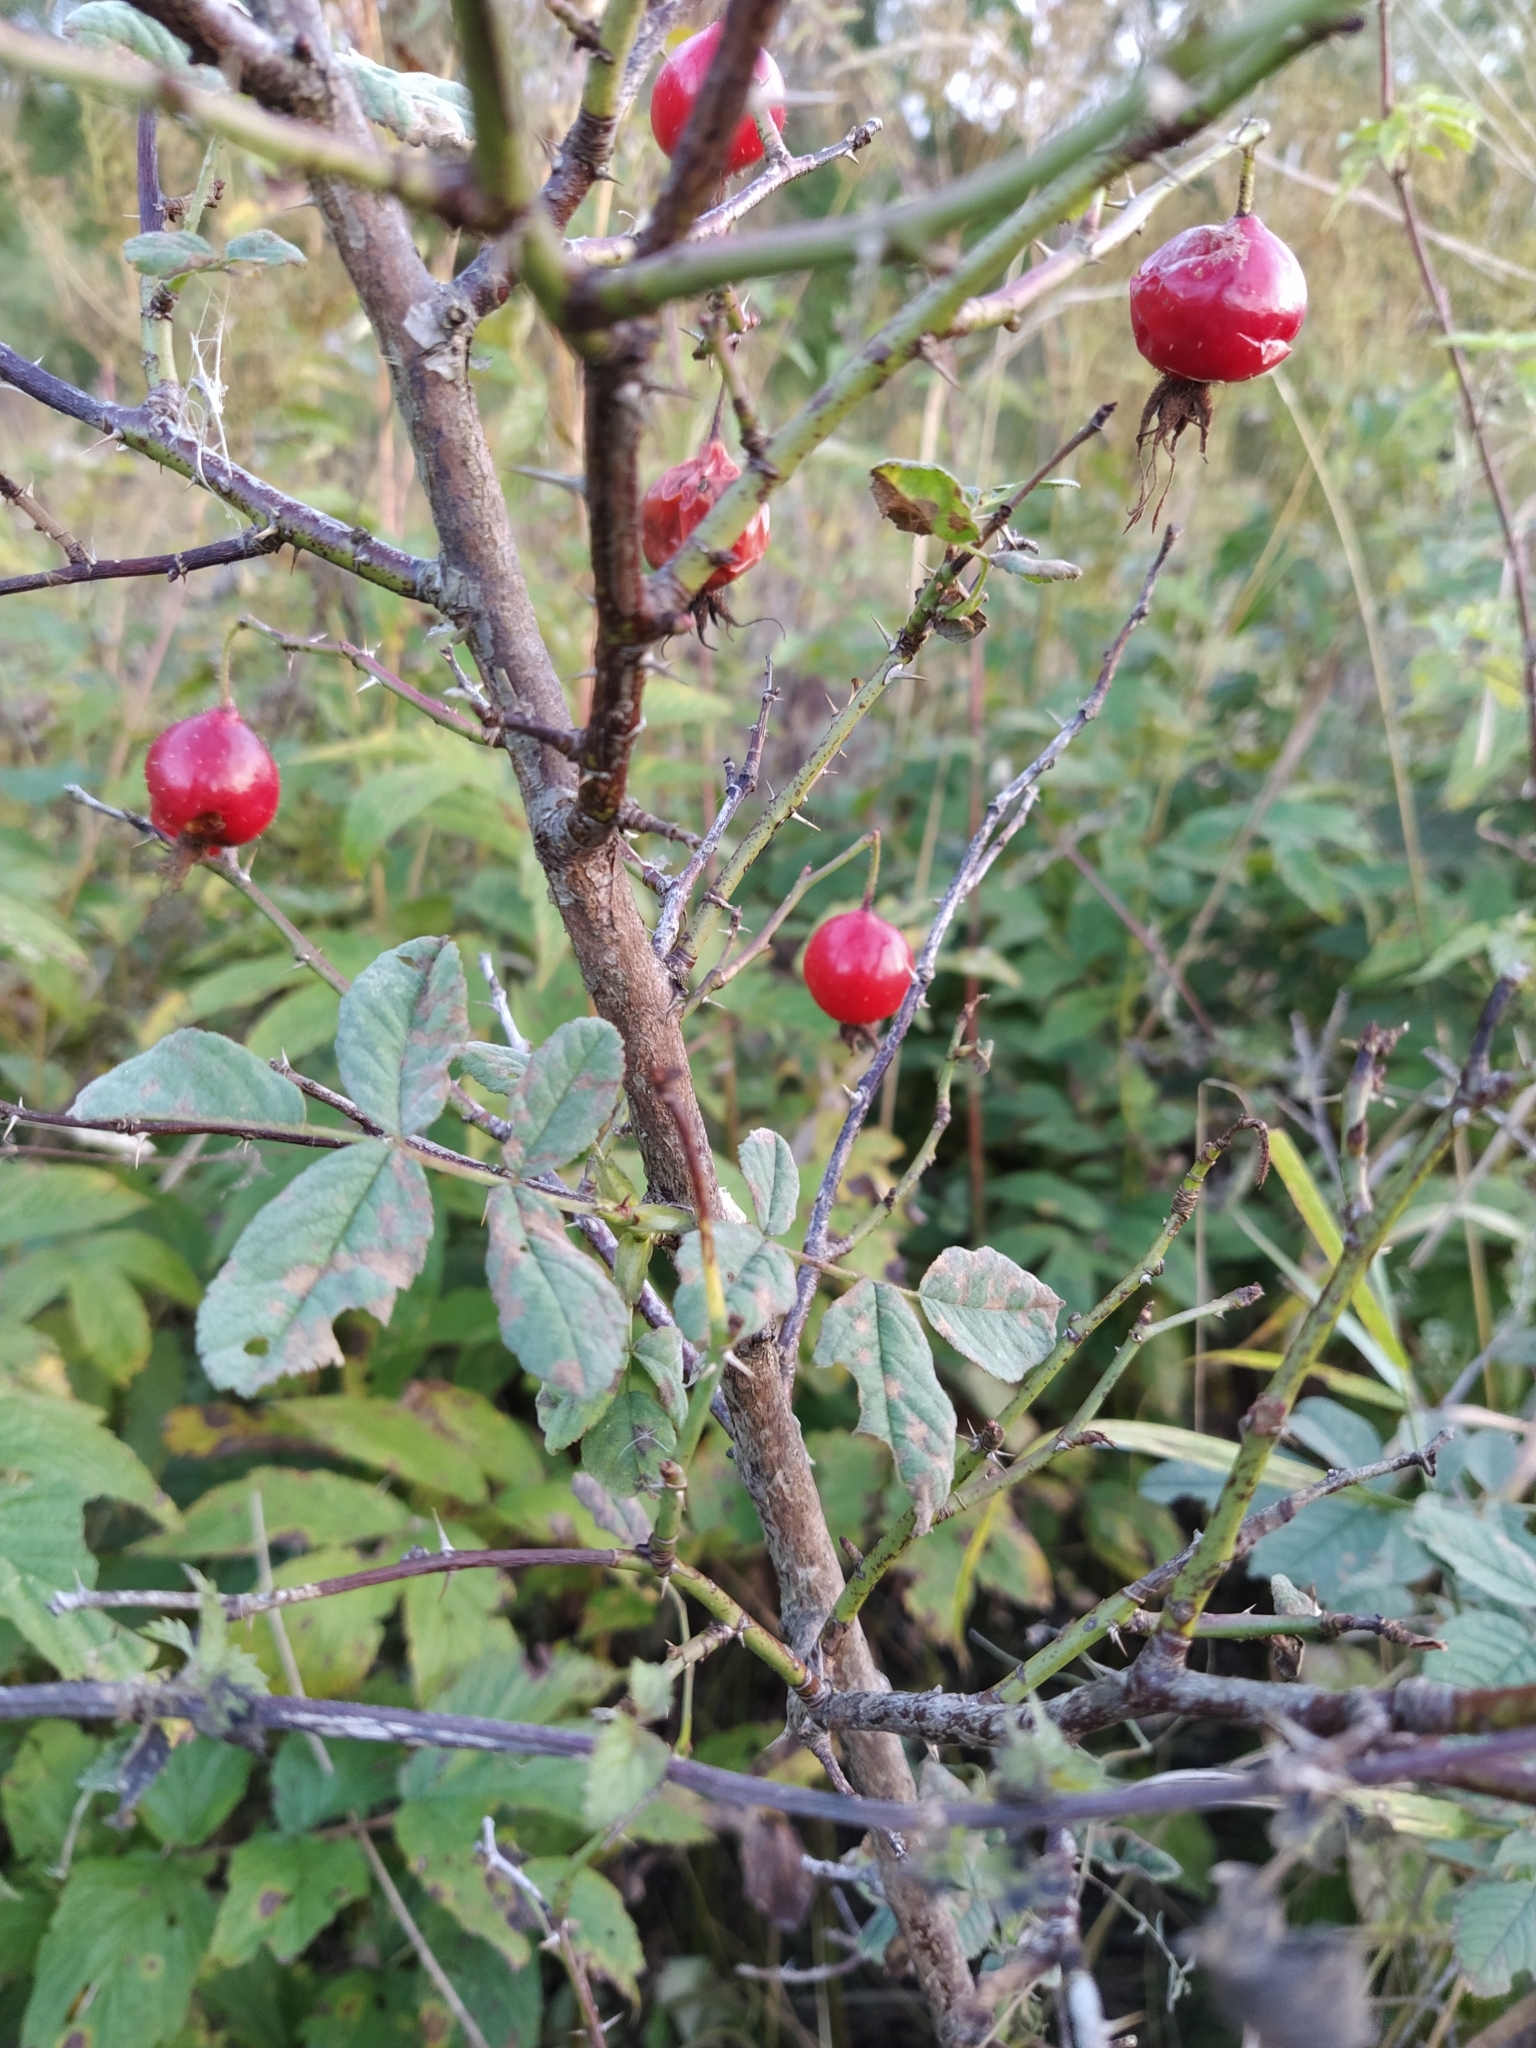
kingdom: Plantae
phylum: Tracheophyta
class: Magnoliopsida
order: Rosales
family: Rosaceae
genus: Rosa
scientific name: Rosa villosa
